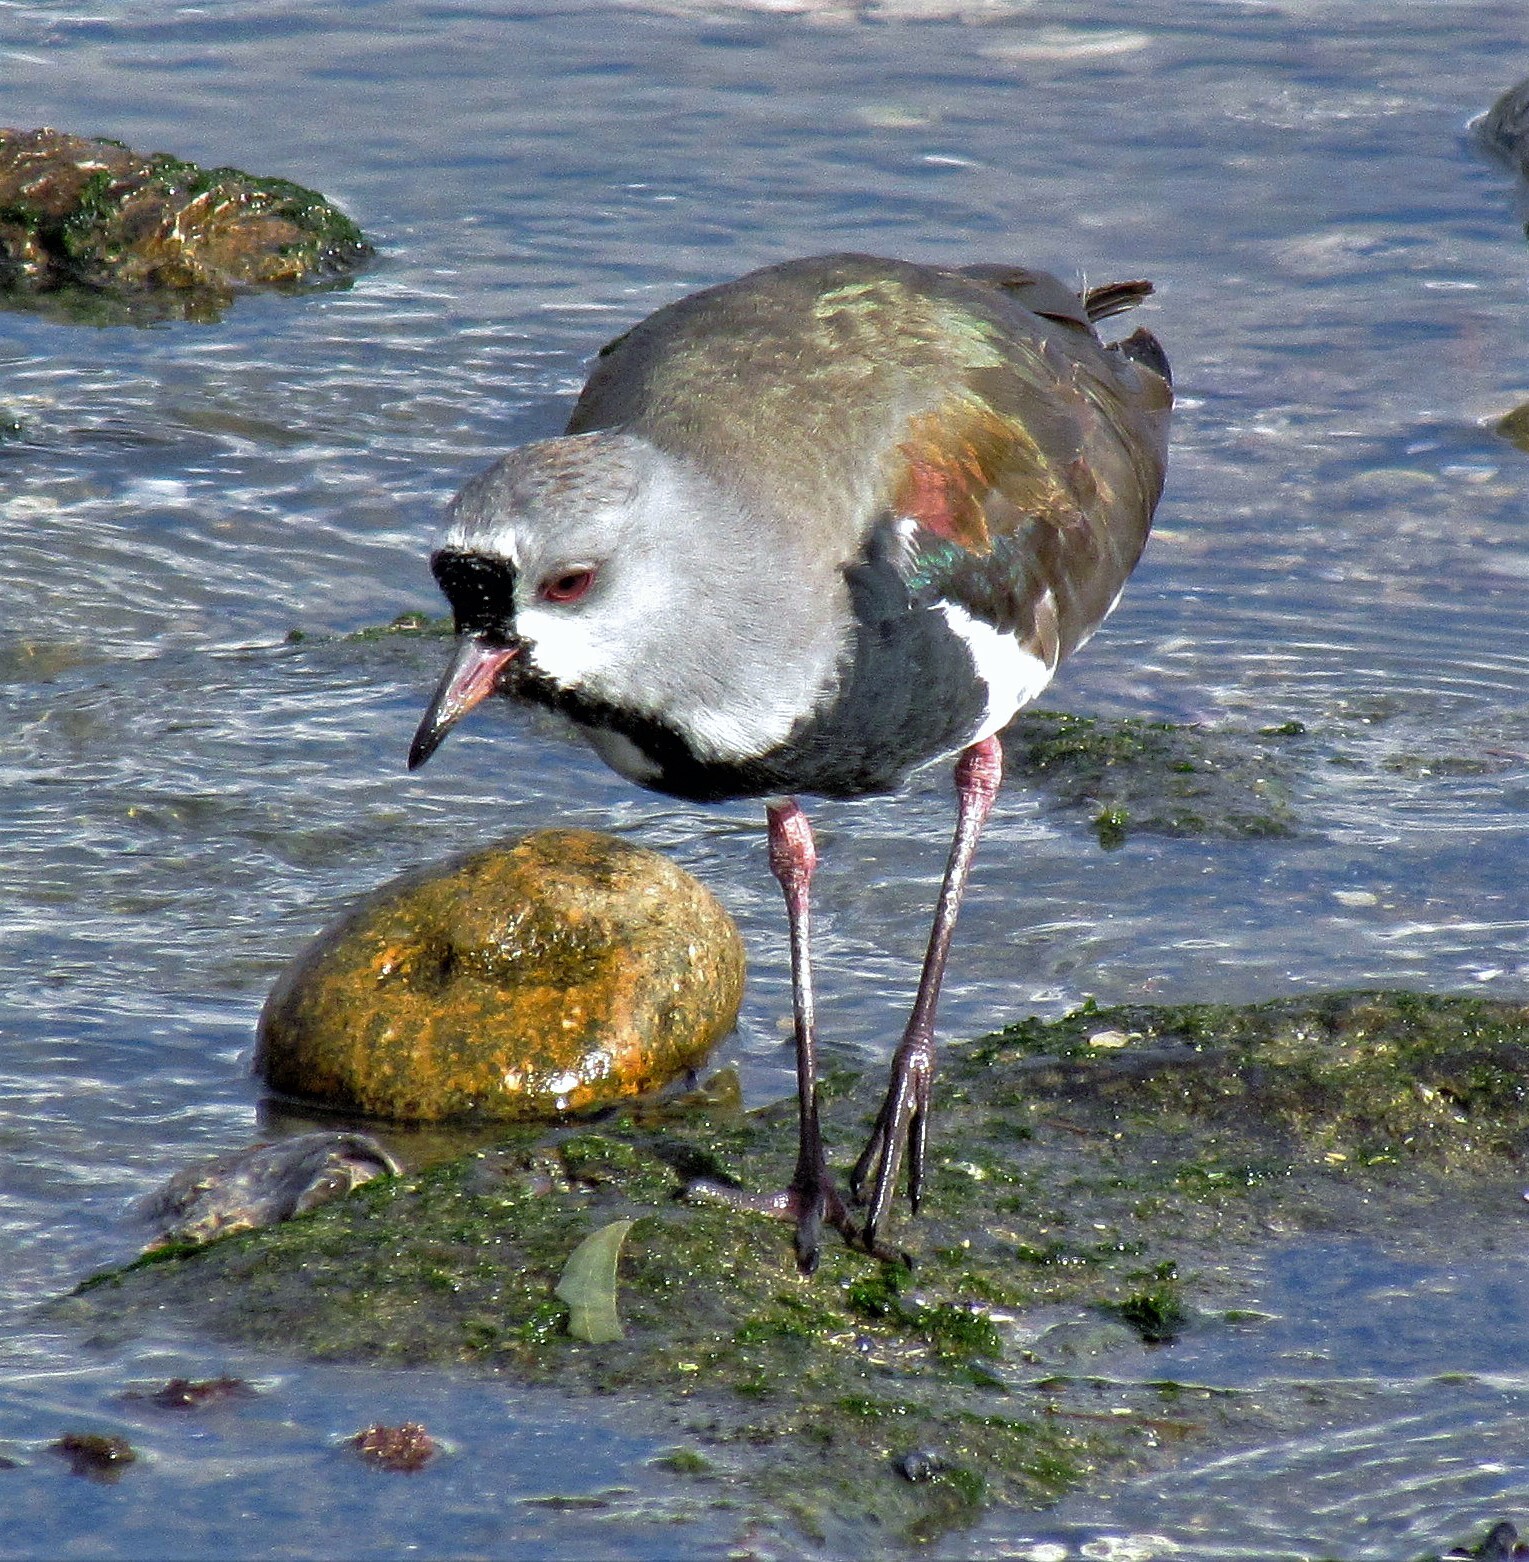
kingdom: Animalia
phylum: Chordata
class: Aves
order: Charadriiformes
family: Charadriidae
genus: Vanellus
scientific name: Vanellus chilensis
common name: Southern lapwing
